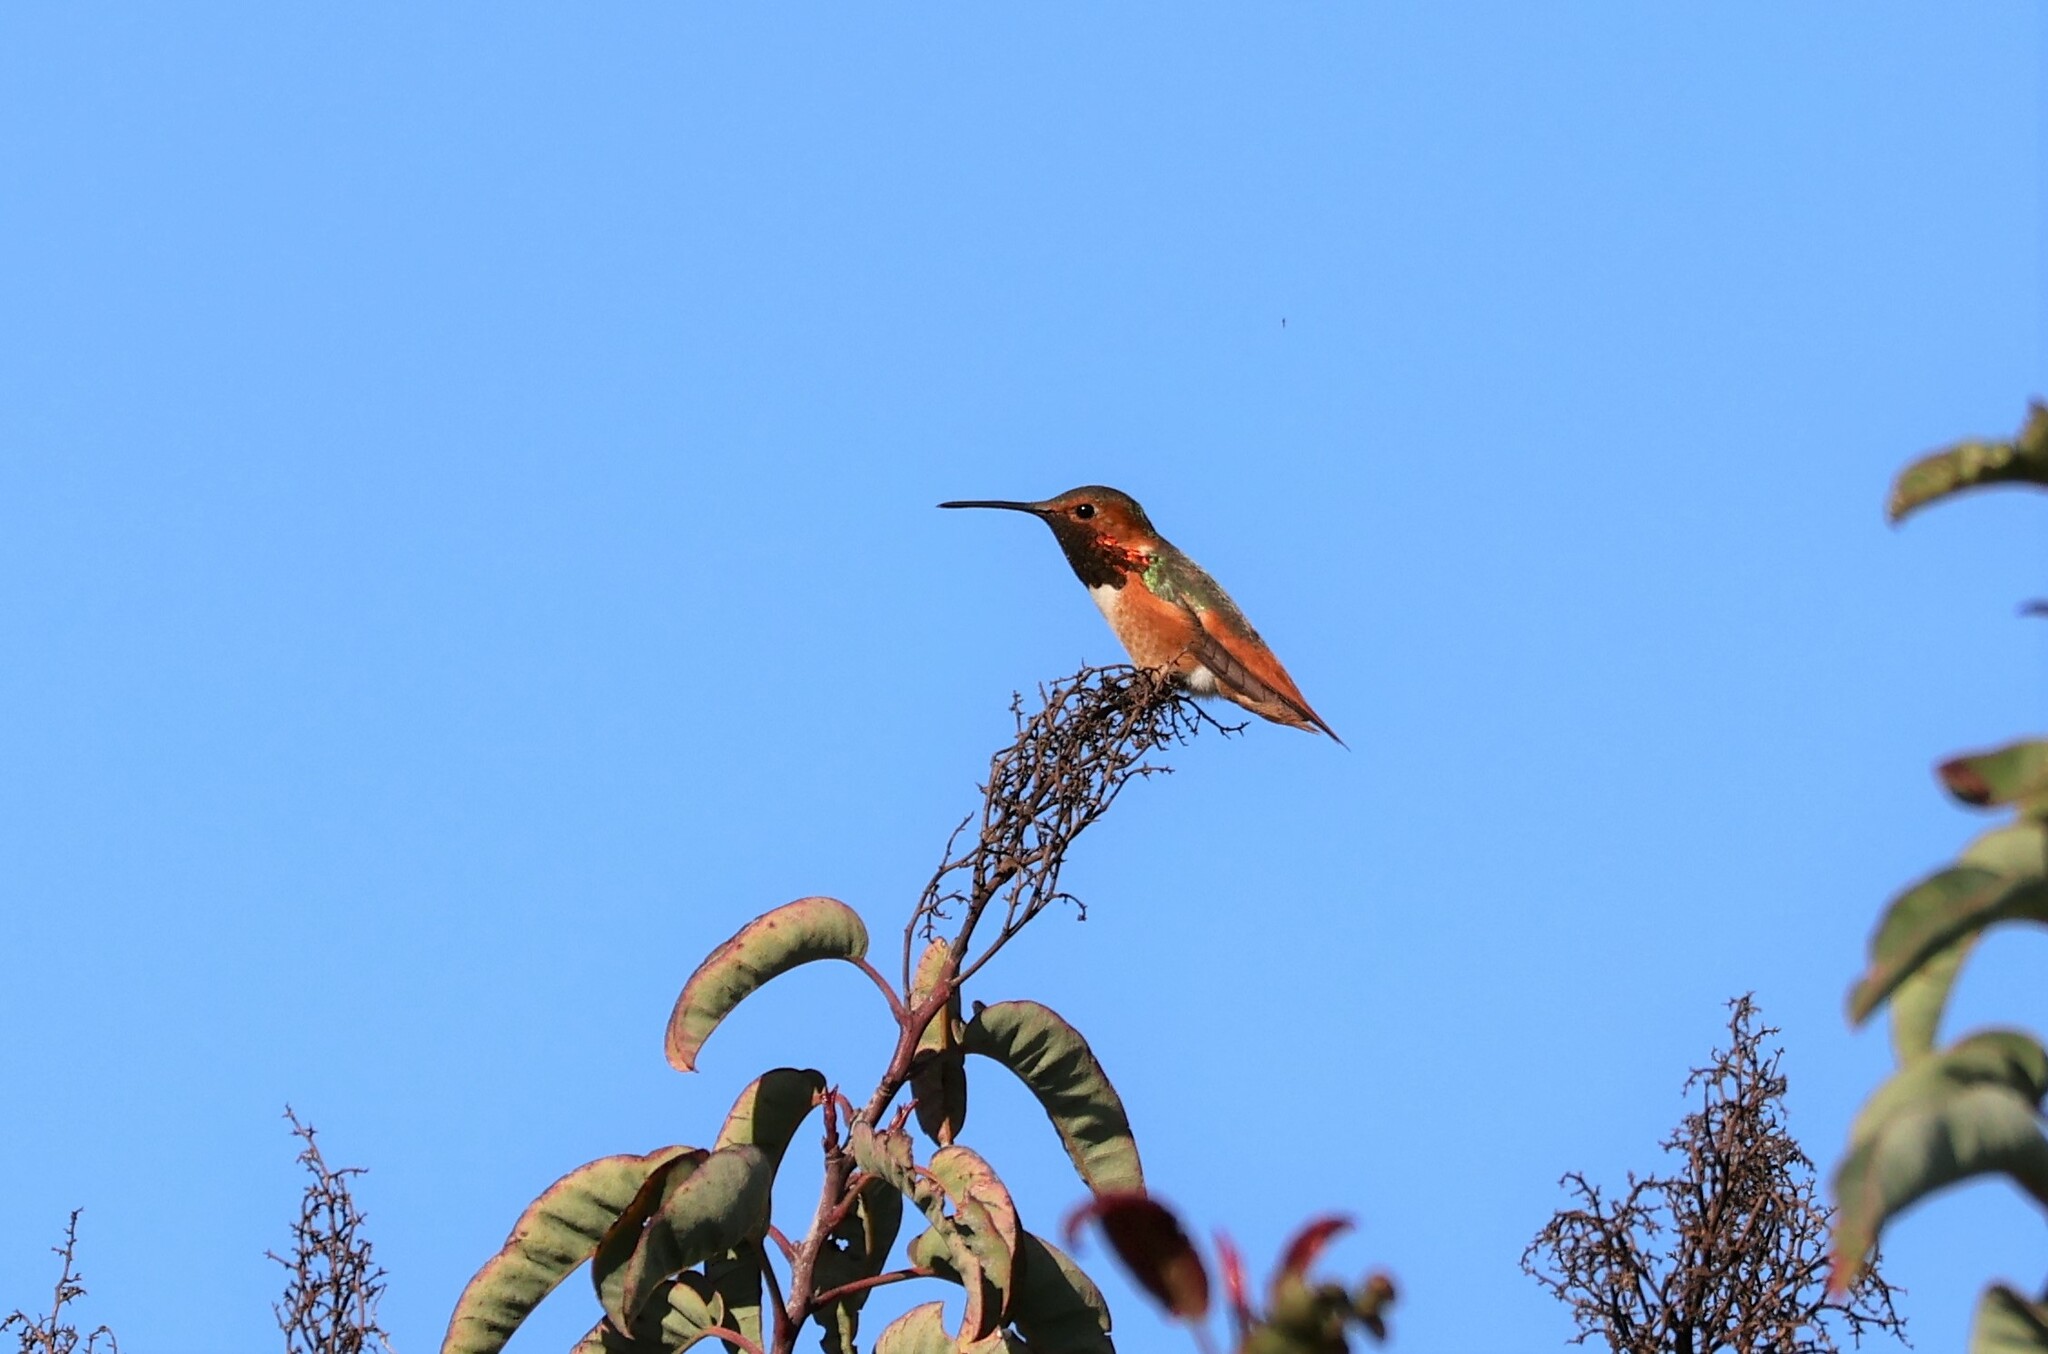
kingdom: Animalia
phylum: Chordata
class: Aves
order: Apodiformes
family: Trochilidae
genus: Selasphorus
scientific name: Selasphorus sasin
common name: Allen's hummingbird
